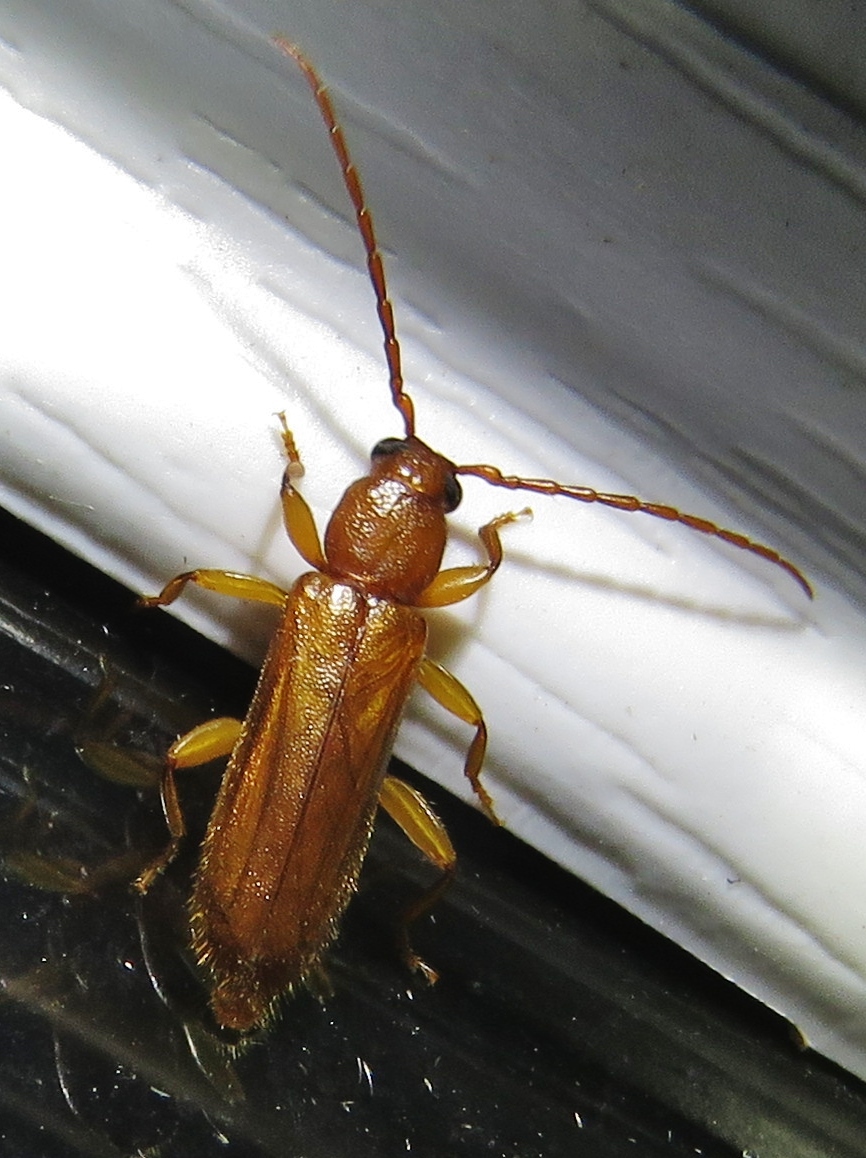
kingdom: Animalia
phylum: Arthropoda
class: Insecta
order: Coleoptera
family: Cerambycidae
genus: Smodicum
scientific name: Smodicum cucujiforme
